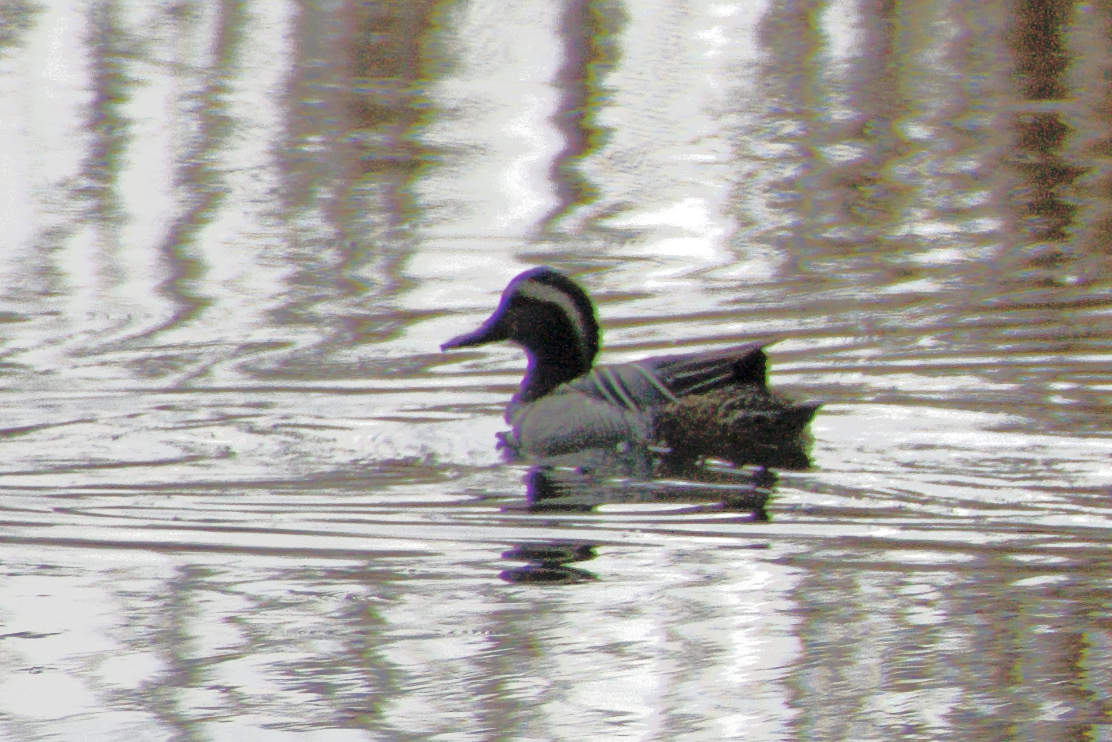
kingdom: Animalia
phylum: Chordata
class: Aves
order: Anseriformes
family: Anatidae
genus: Spatula
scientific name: Spatula querquedula
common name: Garganey
